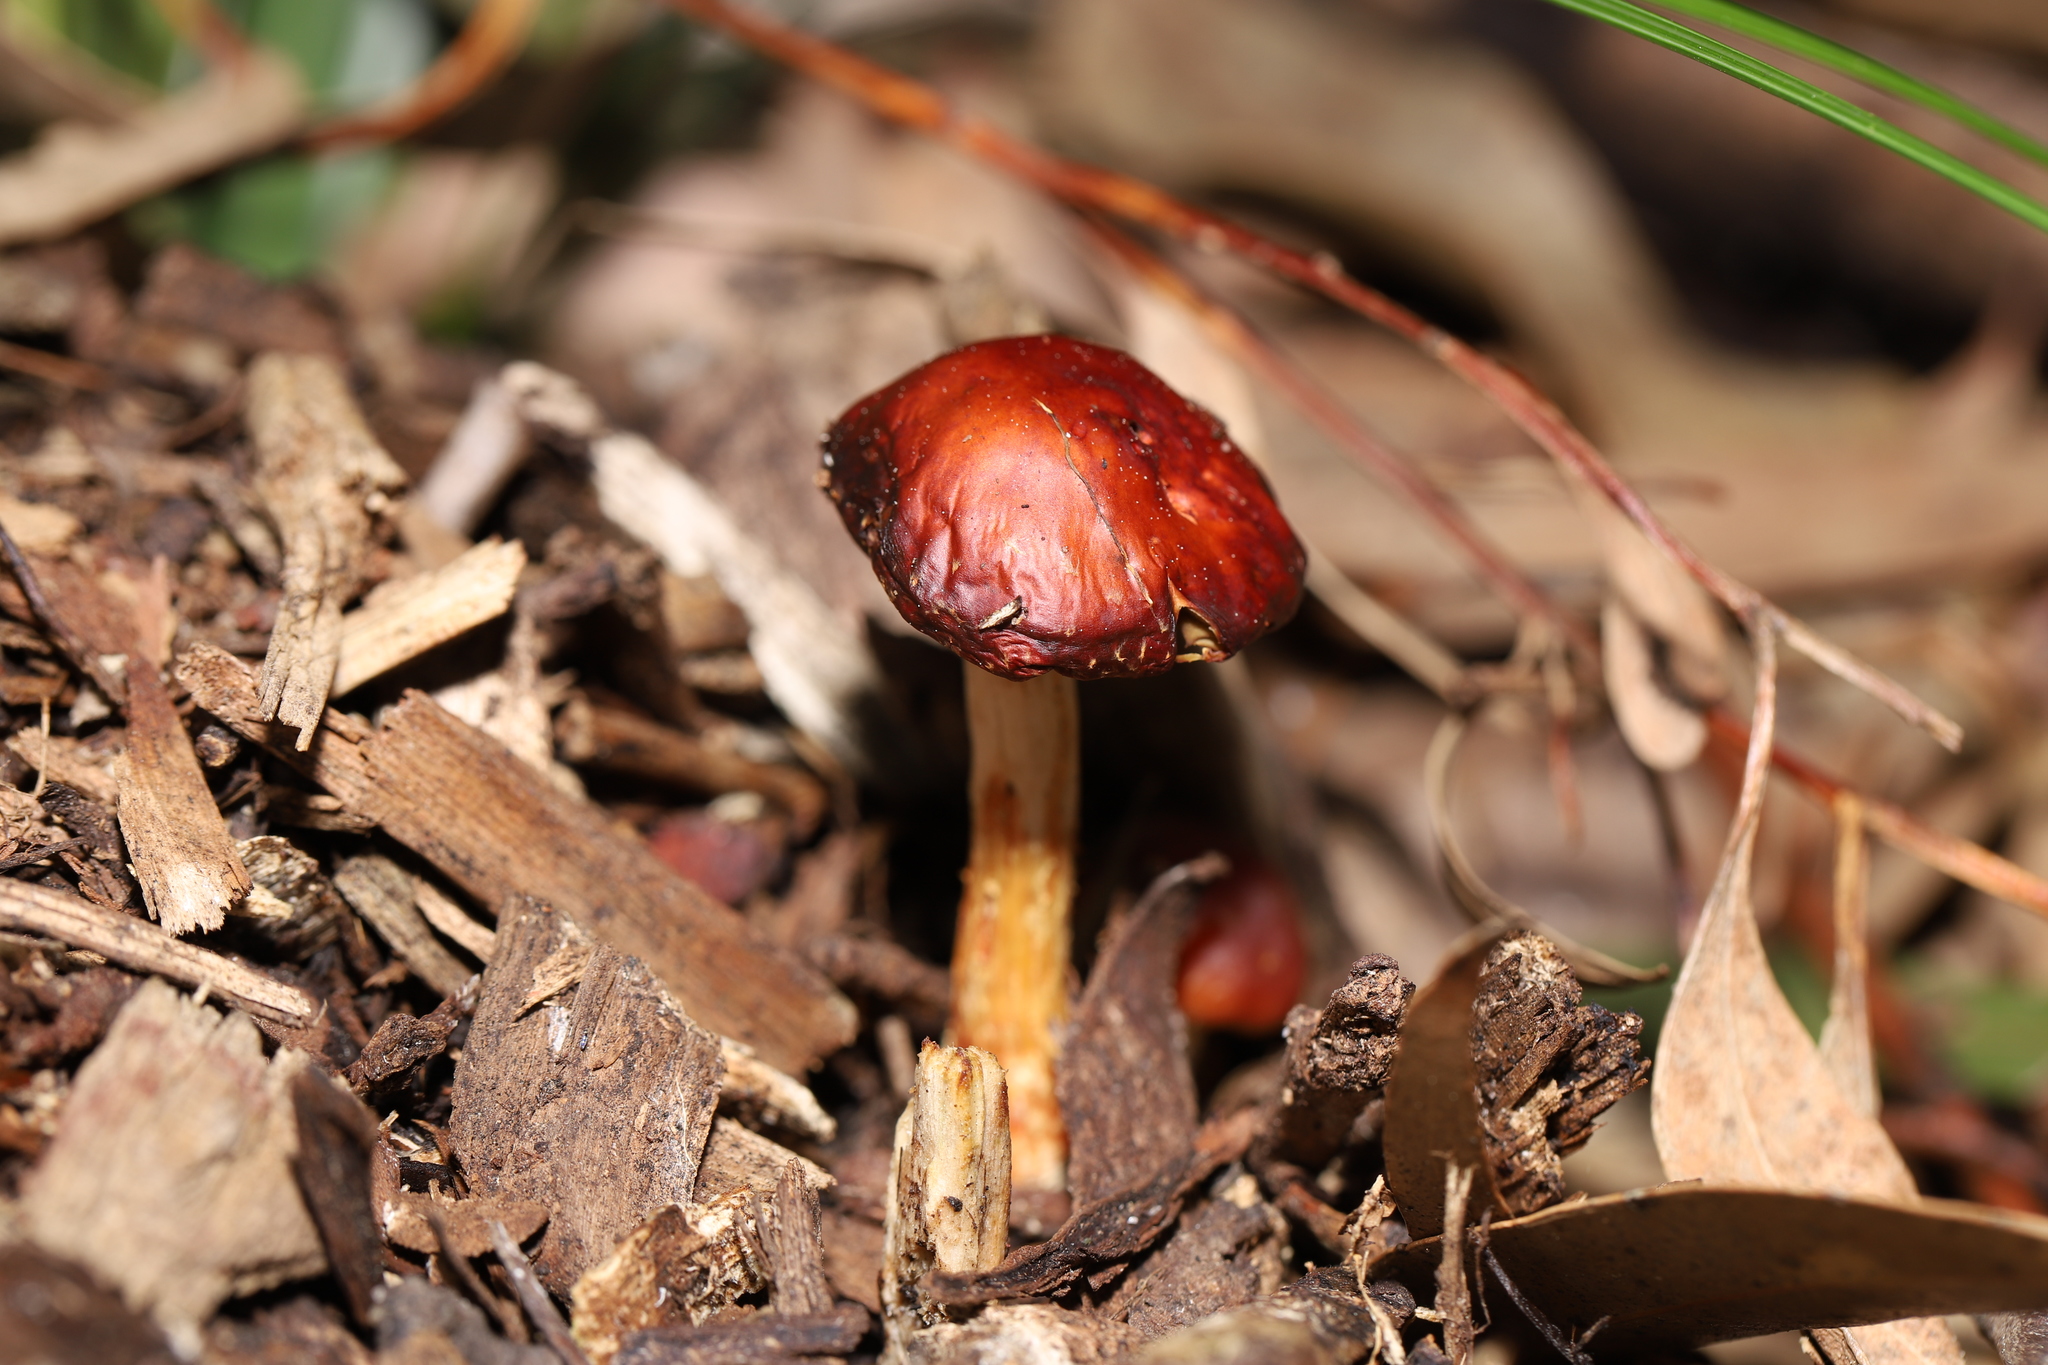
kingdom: Fungi
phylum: Basidiomycota
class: Agaricomycetes
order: Agaricales
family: Strophariaceae
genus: Leratiomyces
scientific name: Leratiomyces ceres
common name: Redlead roundhead
